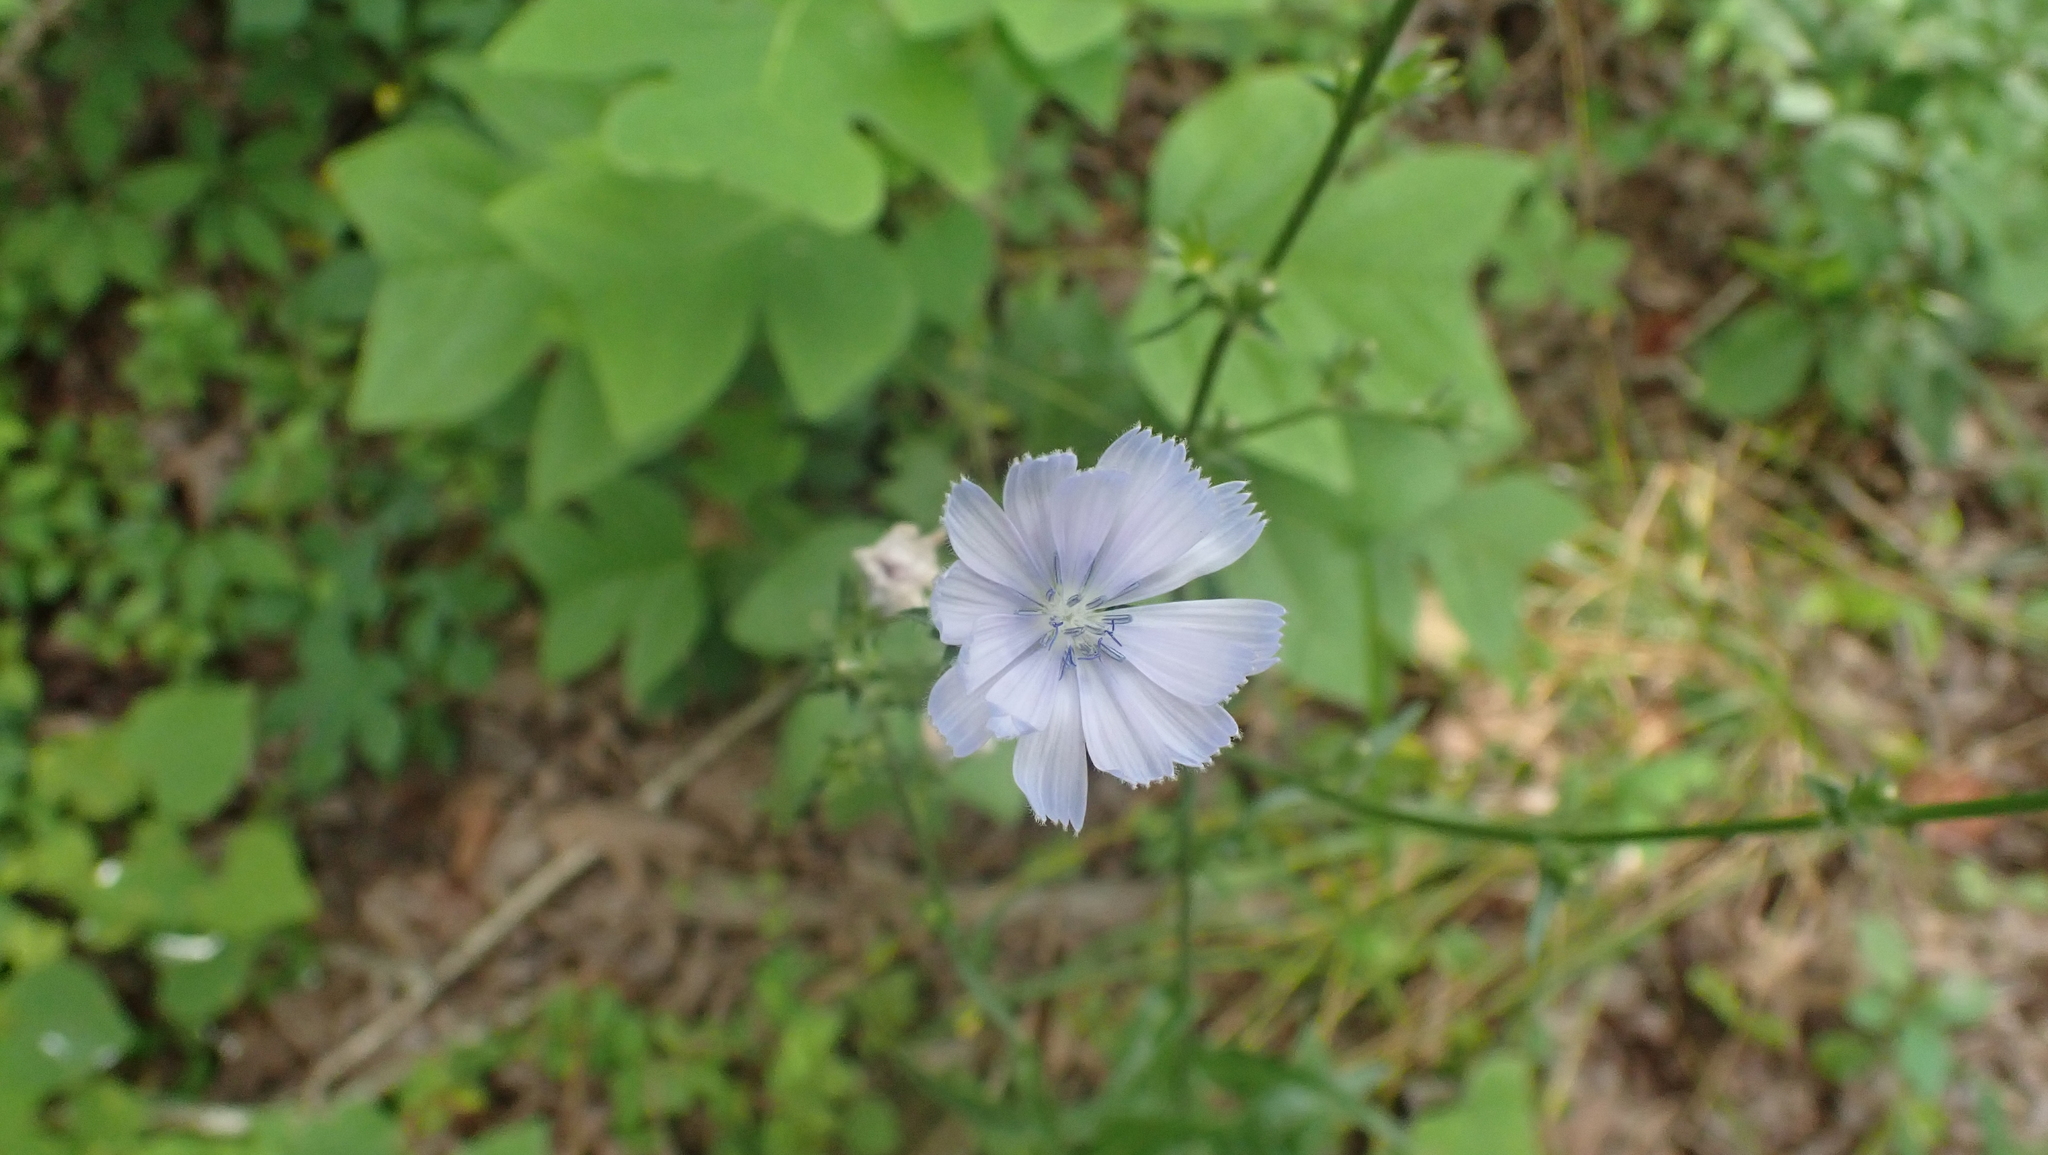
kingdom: Plantae
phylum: Tracheophyta
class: Magnoliopsida
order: Asterales
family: Asteraceae
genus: Cichorium
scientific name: Cichorium intybus
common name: Chicory
